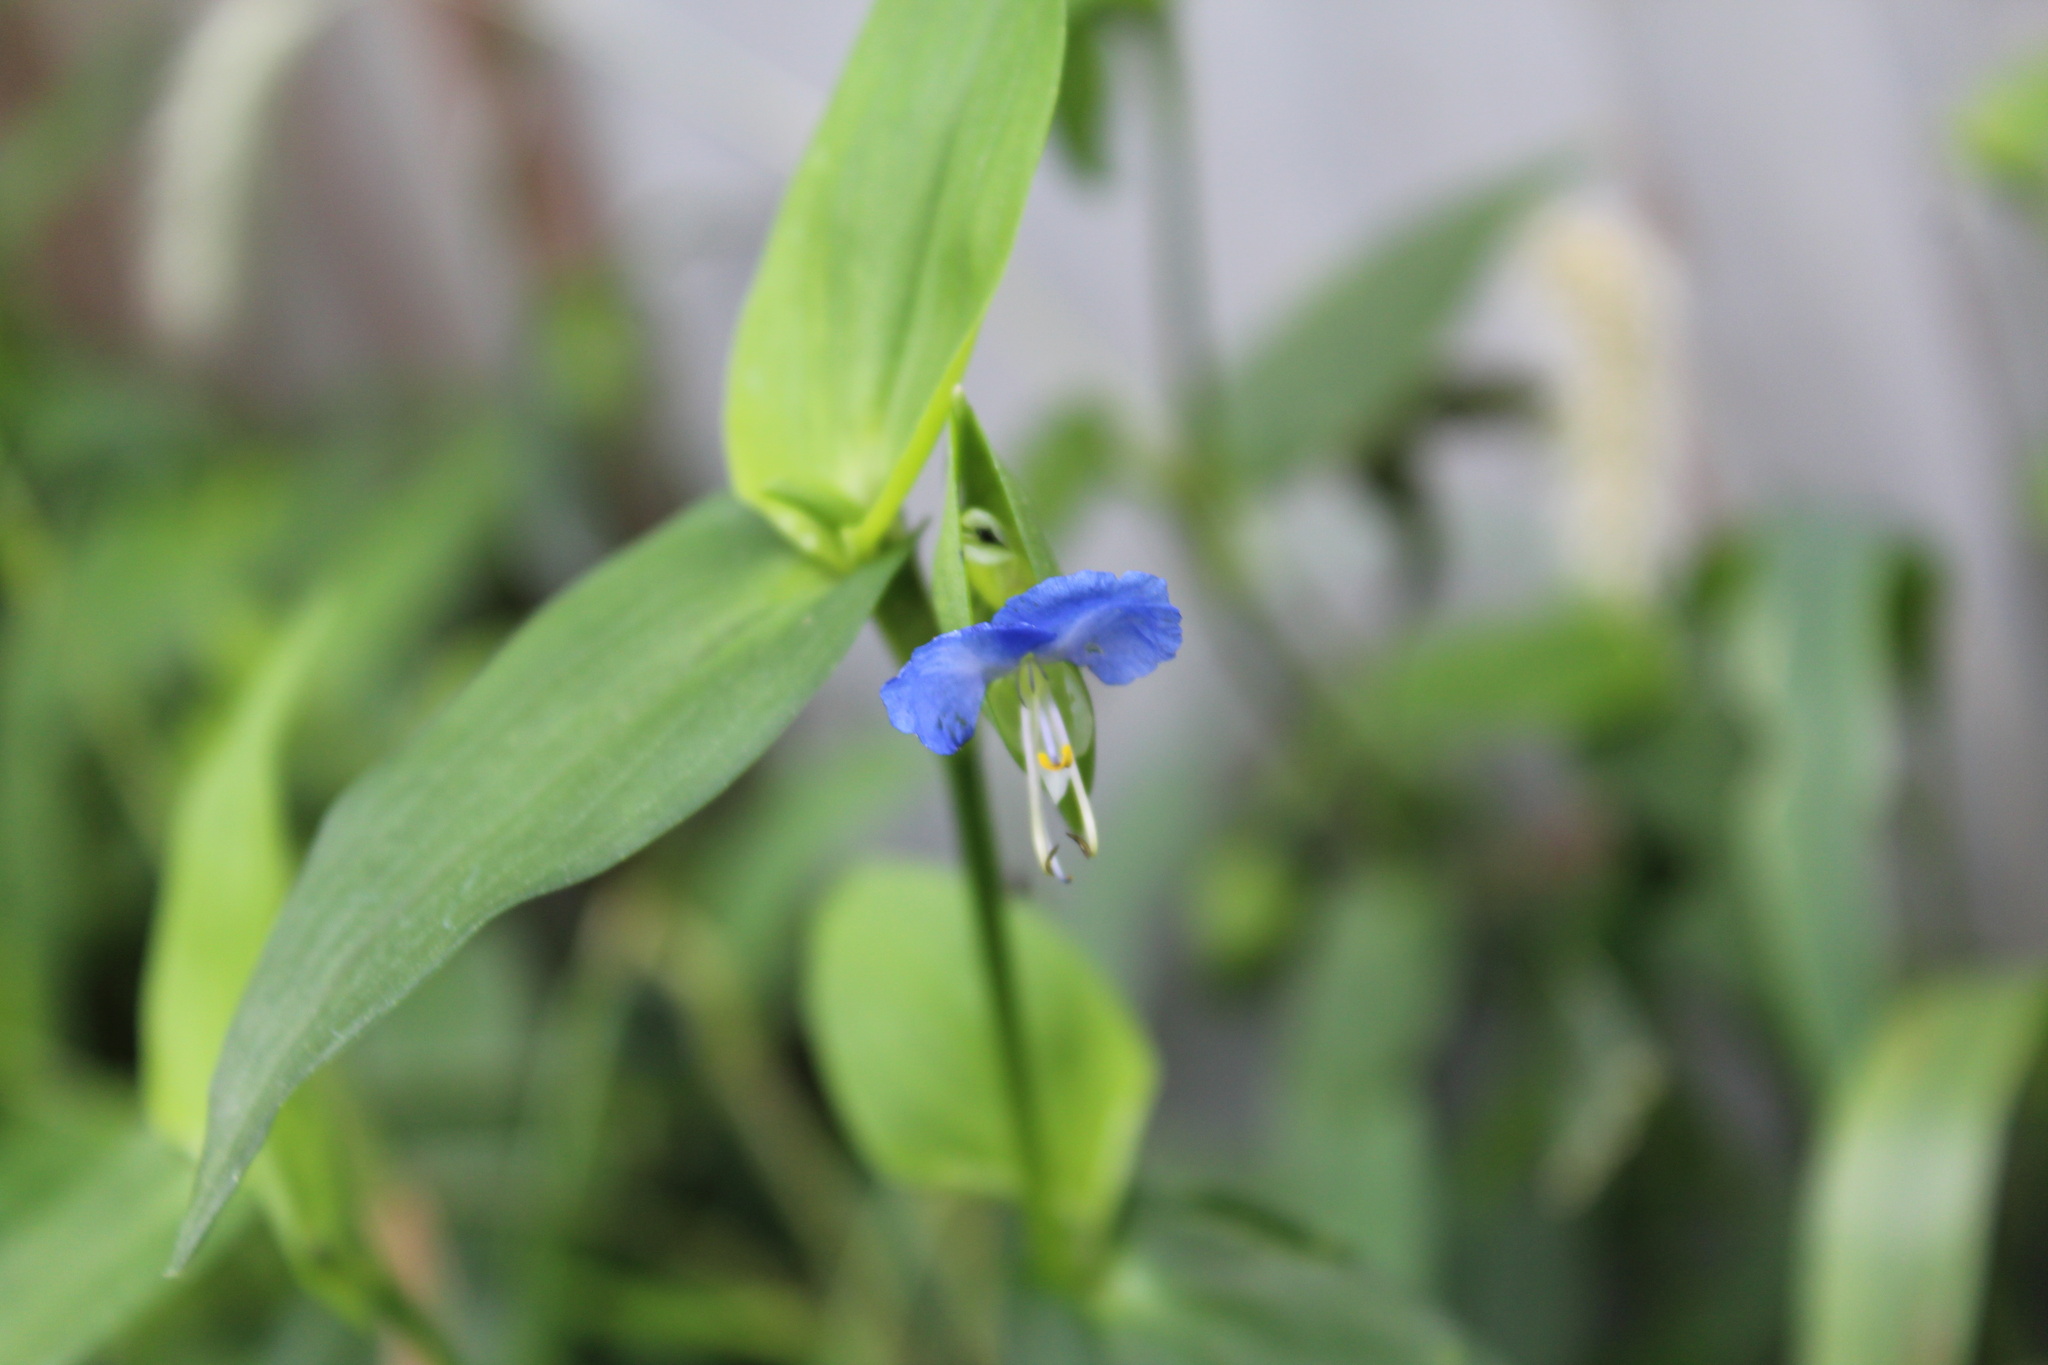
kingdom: Plantae
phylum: Tracheophyta
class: Liliopsida
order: Commelinales
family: Commelinaceae
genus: Commelina
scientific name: Commelina communis
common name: Asiatic dayflower
